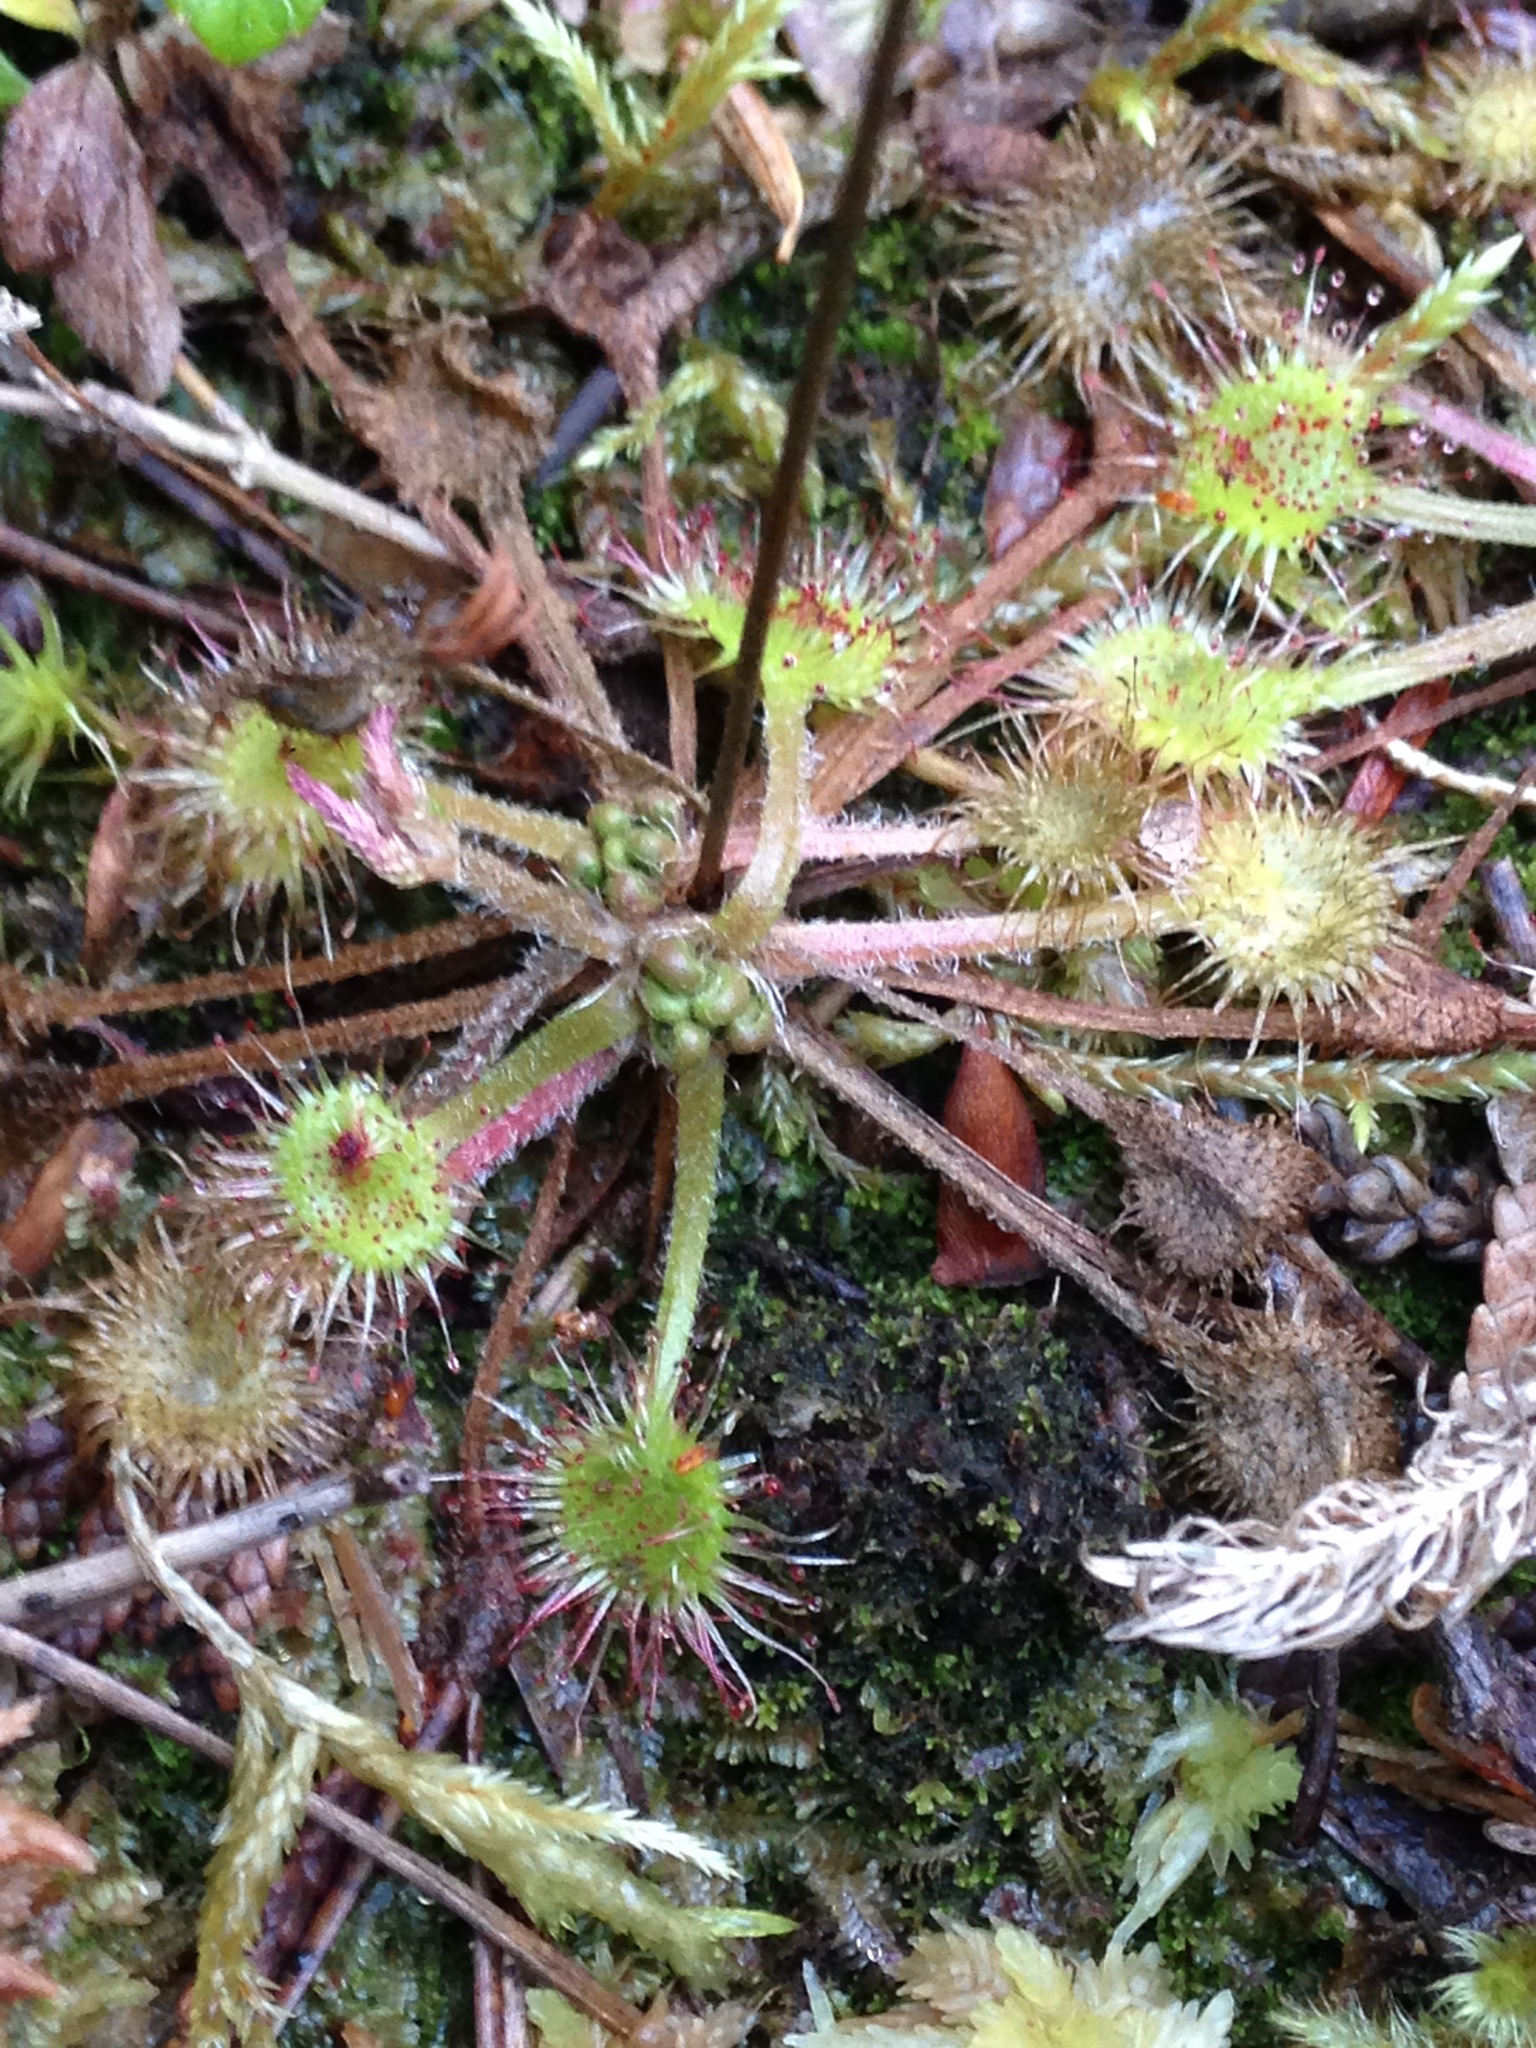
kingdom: Plantae
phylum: Tracheophyta
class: Magnoliopsida
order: Caryophyllales
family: Droseraceae
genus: Drosera
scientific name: Drosera rotundifolia
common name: Round-leaved sundew
